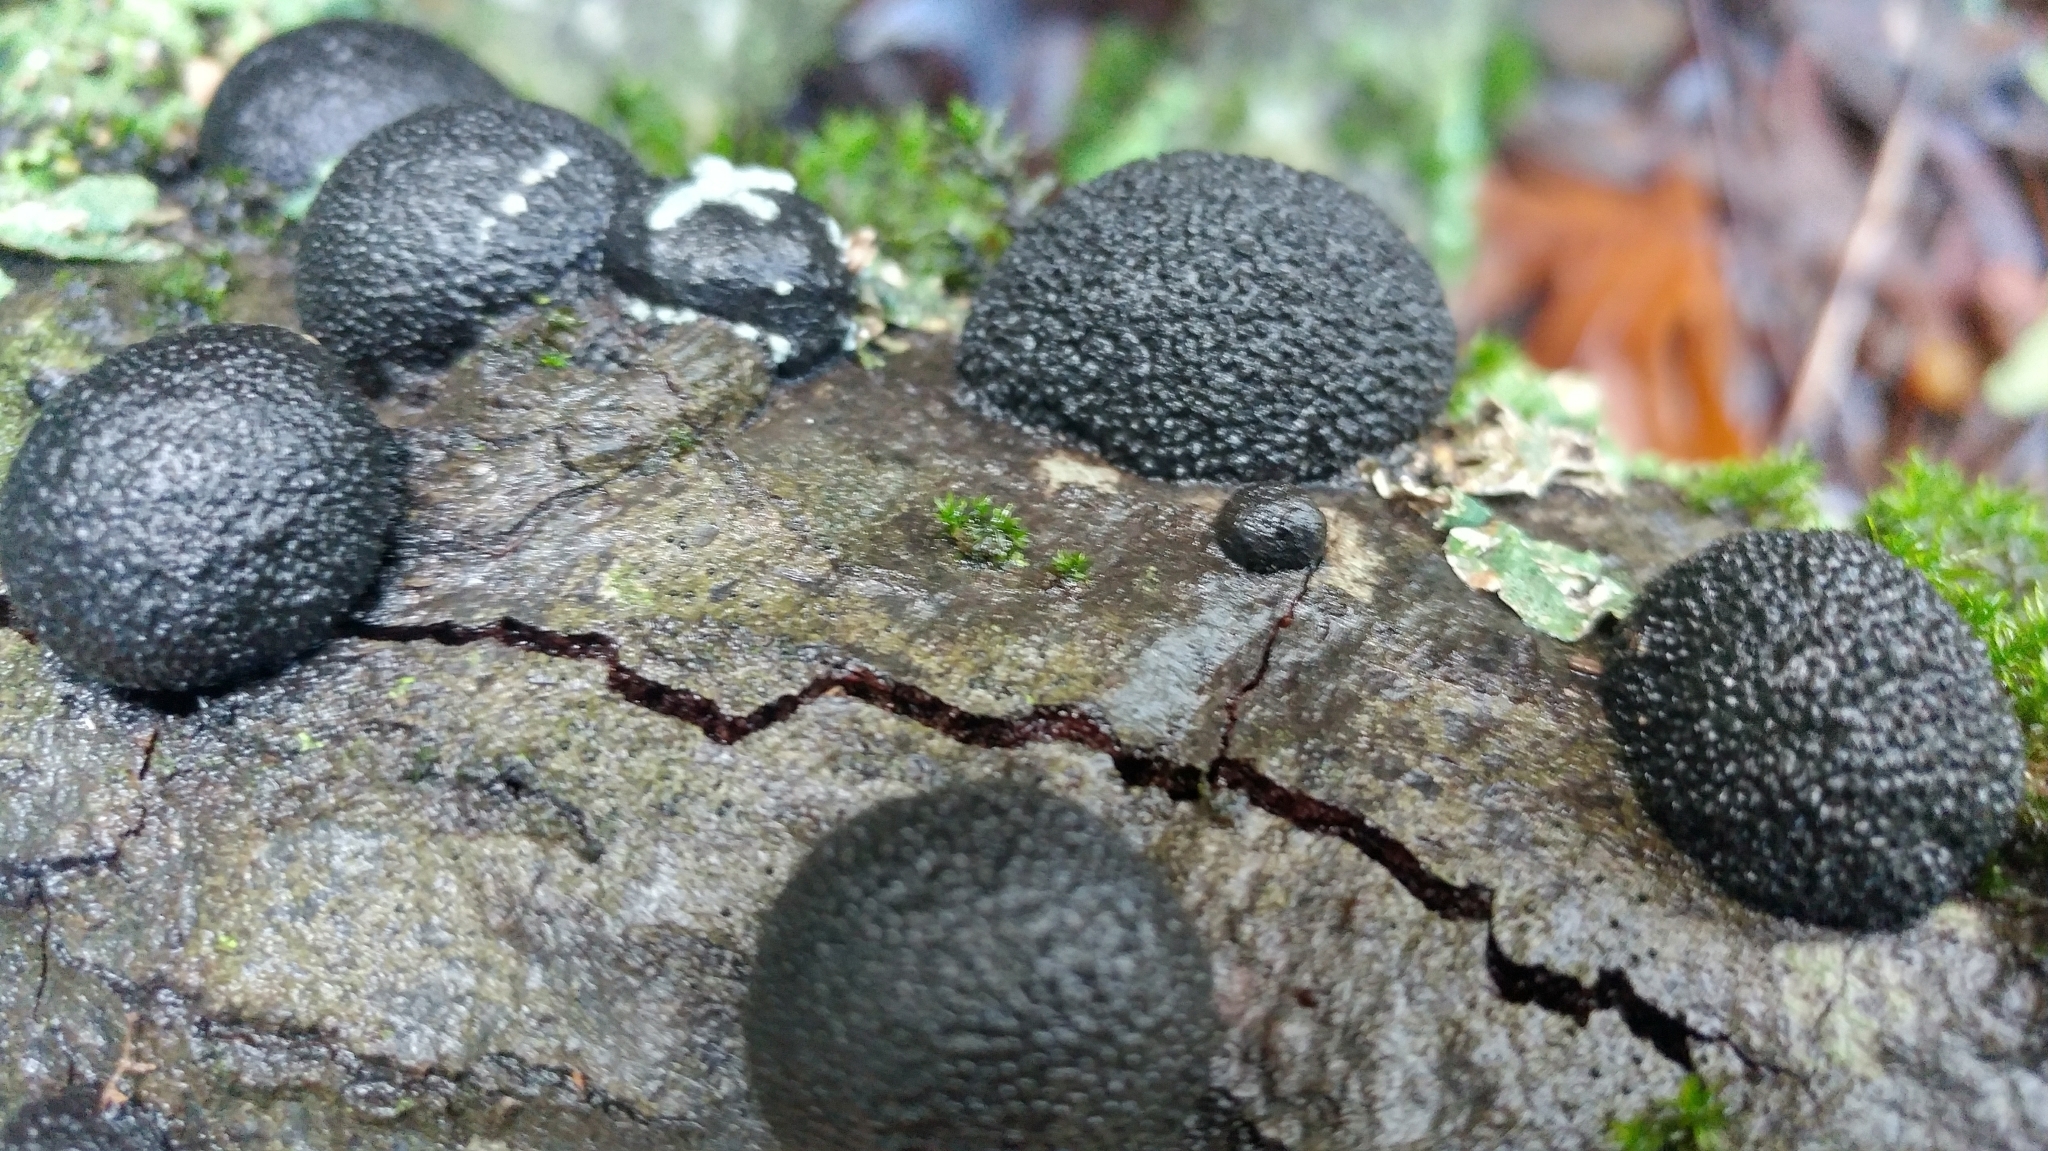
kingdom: Fungi
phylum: Ascomycota
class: Sordariomycetes
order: Xylariales
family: Hypoxylaceae
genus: Annulohypoxylon
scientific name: Annulohypoxylon thouarsianum
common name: Cramp balls
